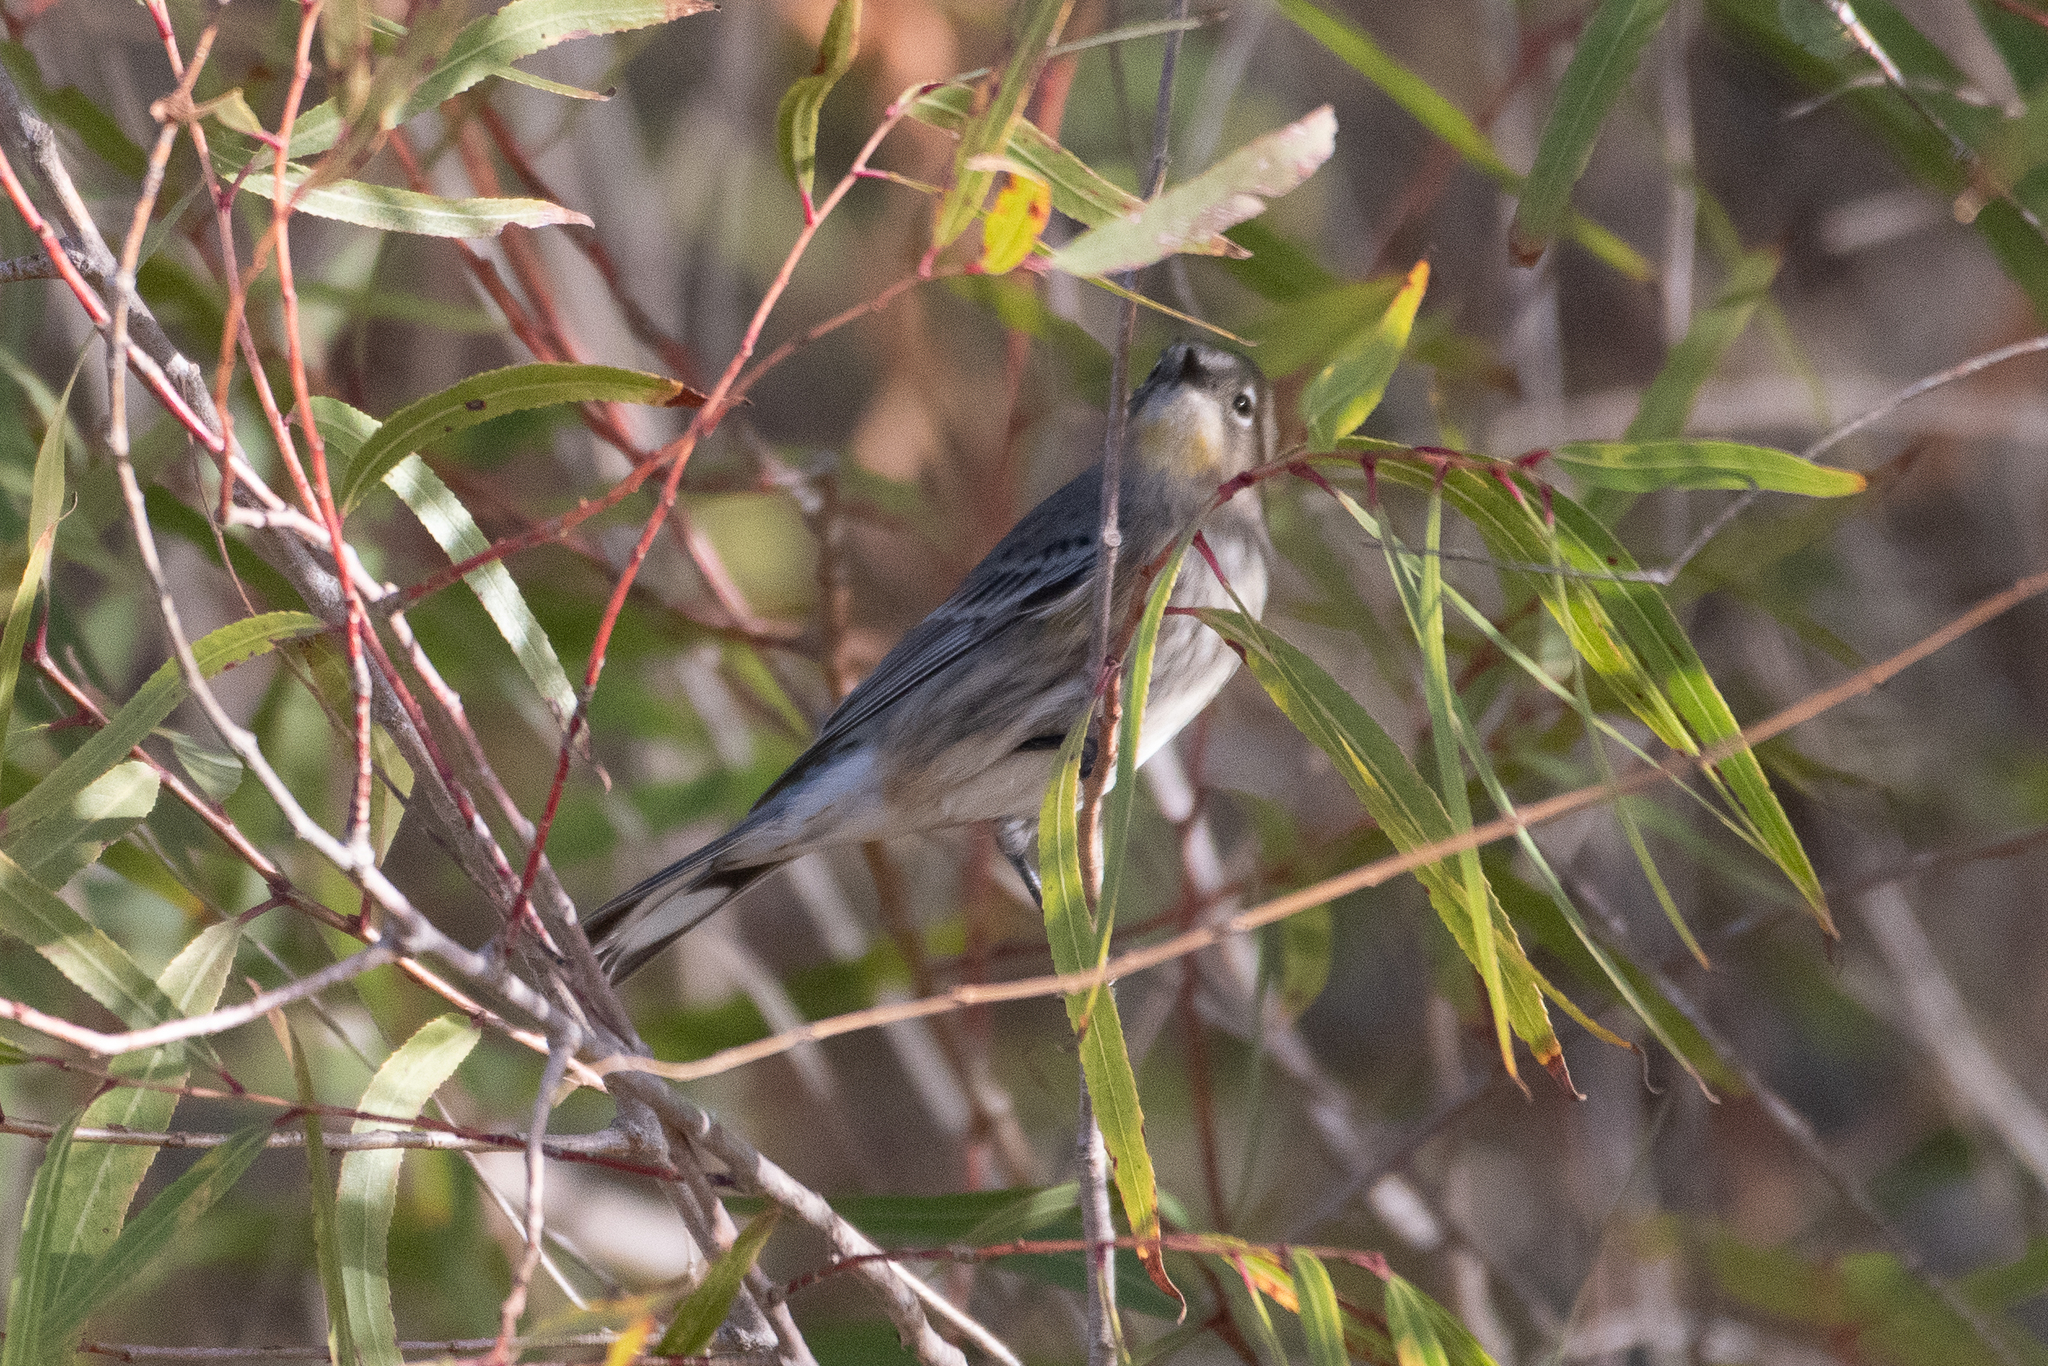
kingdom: Animalia
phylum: Chordata
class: Aves
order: Passeriformes
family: Parulidae
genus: Setophaga
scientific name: Setophaga coronata
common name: Myrtle warbler
